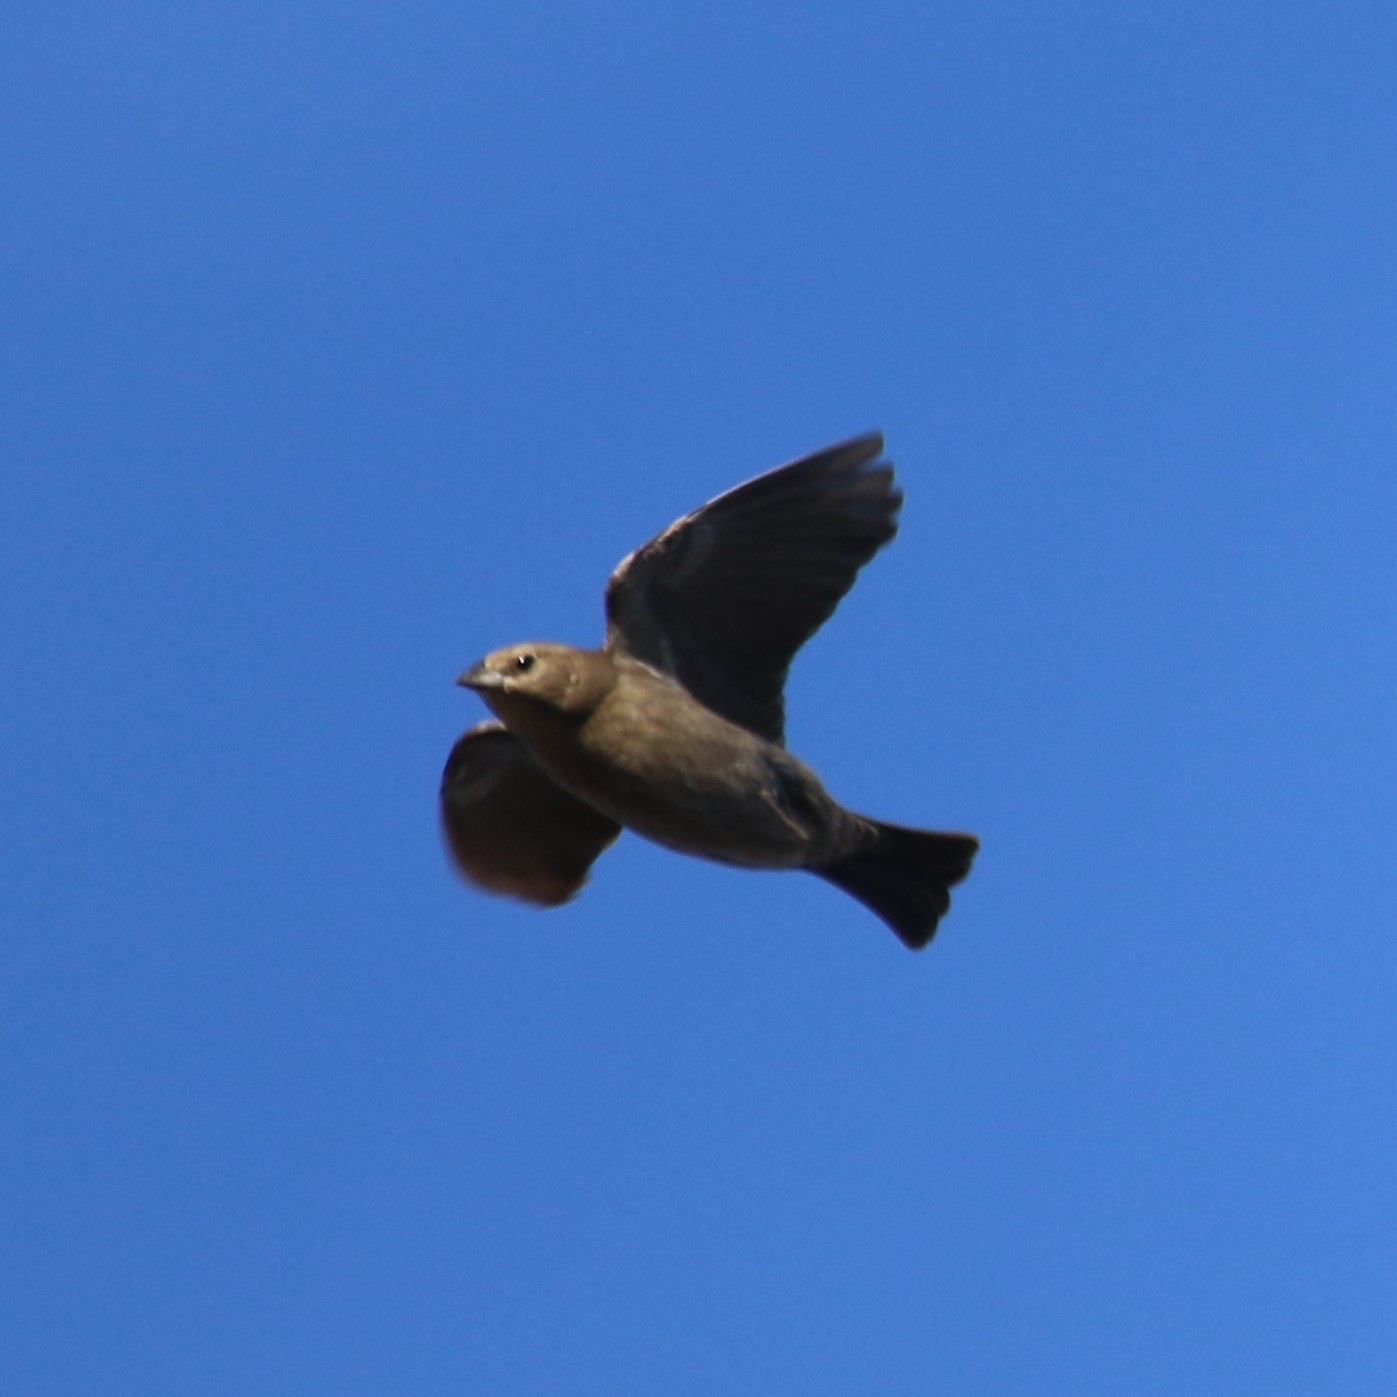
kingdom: Animalia
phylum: Chordata
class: Aves
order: Passeriformes
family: Icteridae
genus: Molothrus
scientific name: Molothrus ater
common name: Brown-headed cowbird
